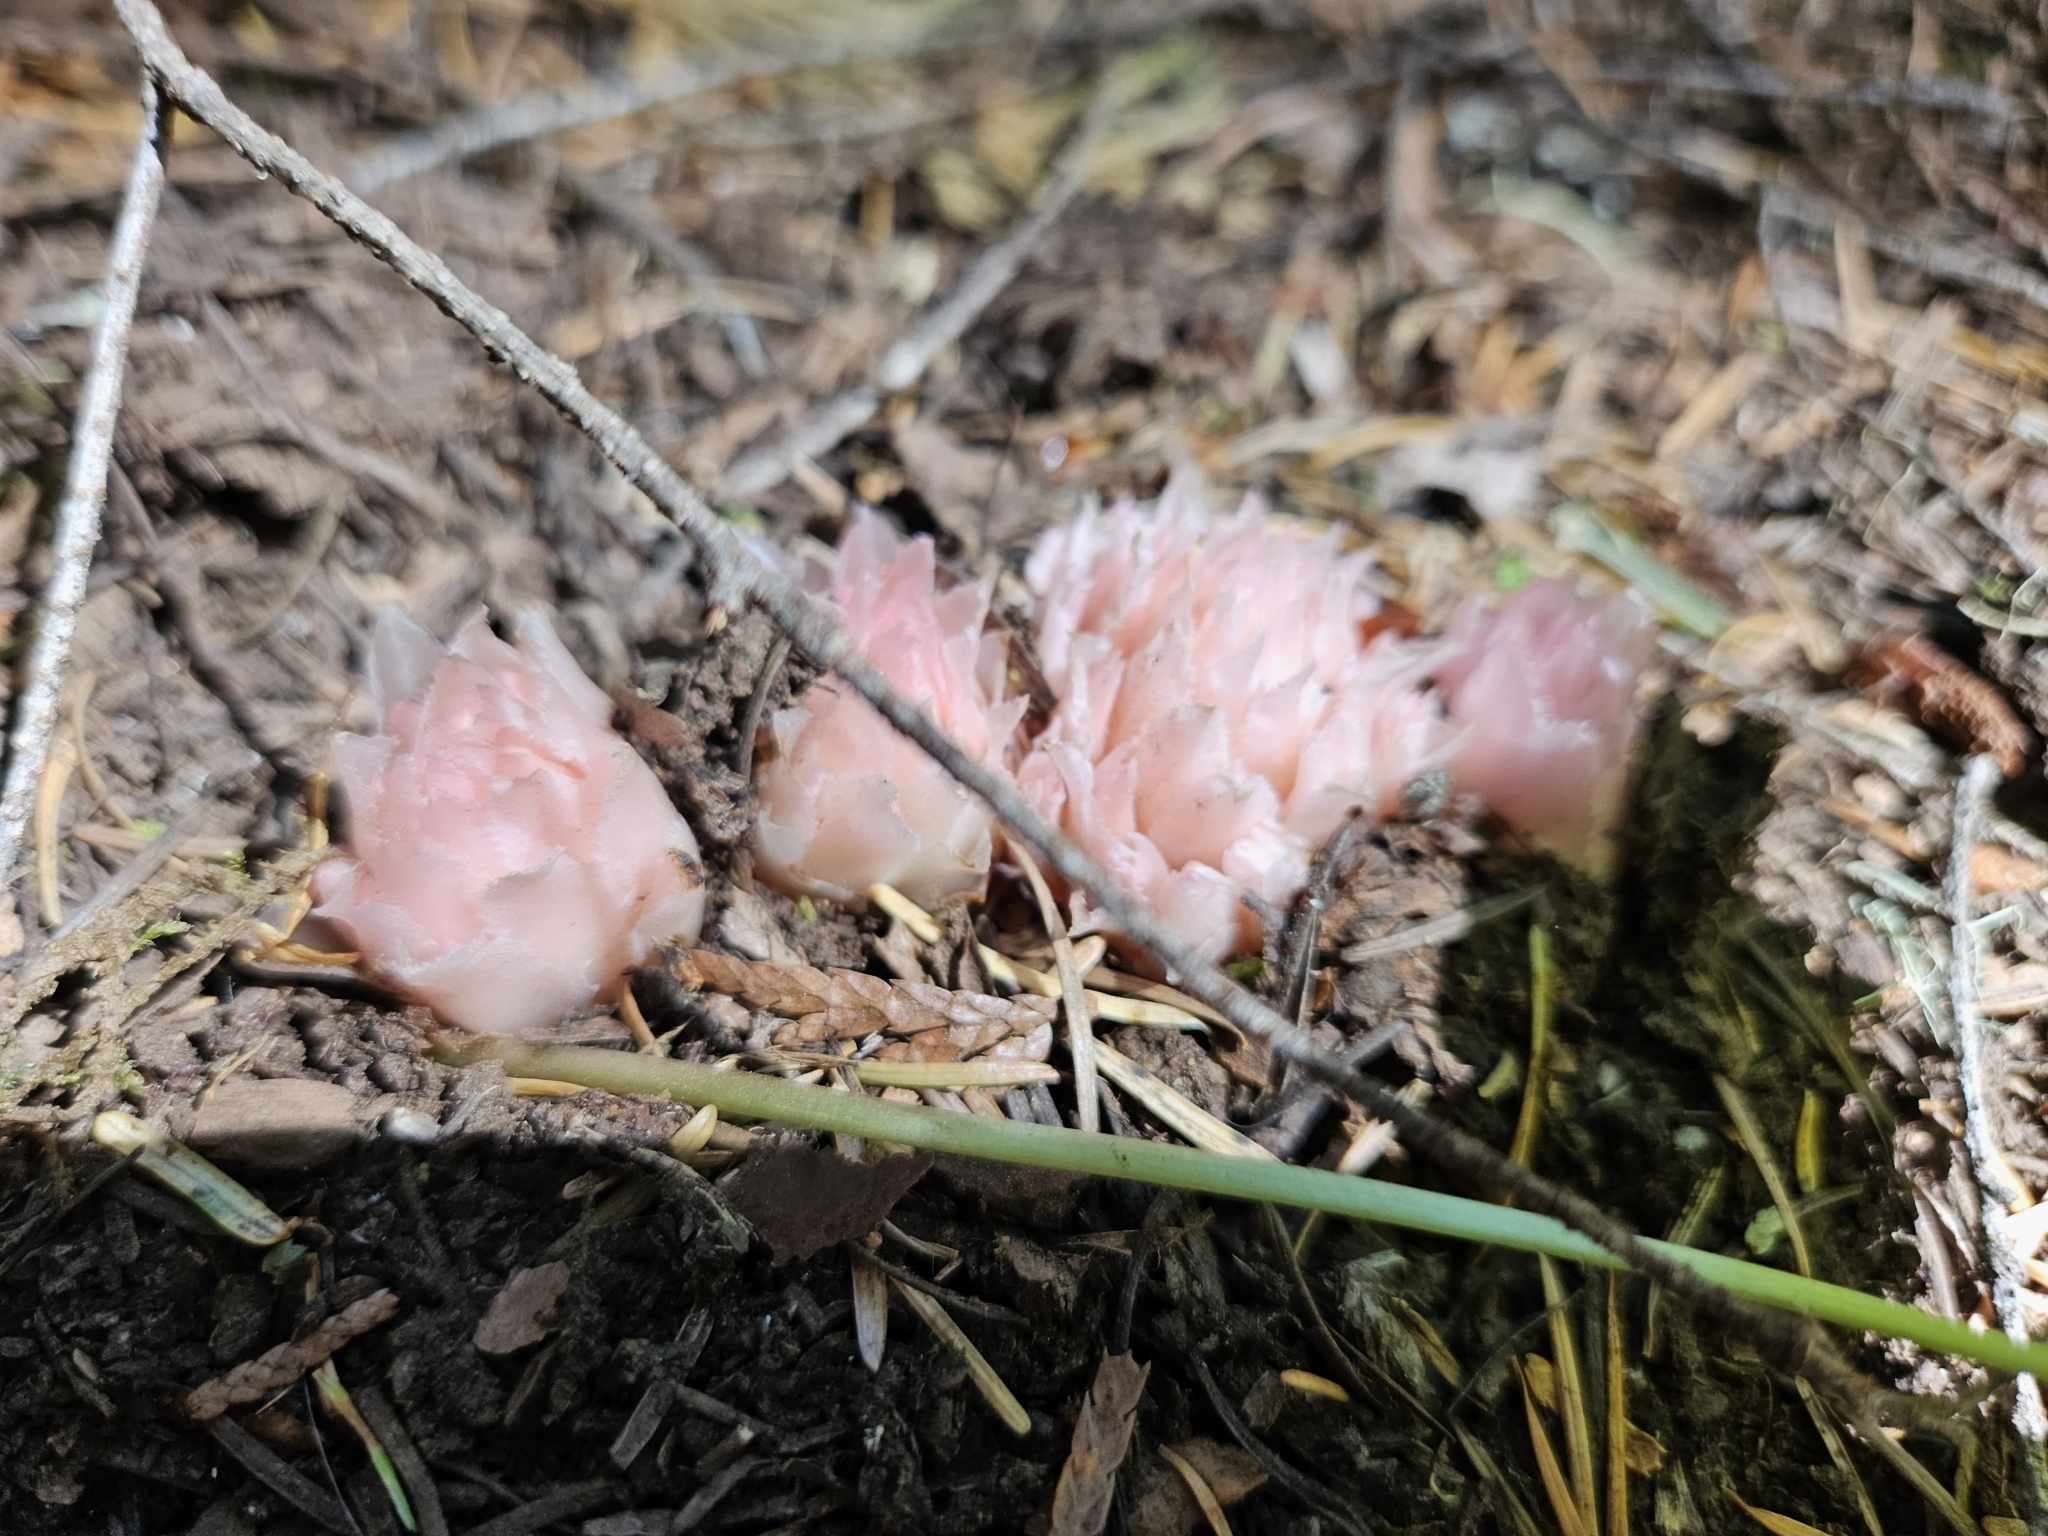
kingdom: Plantae
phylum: Tracheophyta
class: Magnoliopsida
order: Ericales
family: Ericaceae
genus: Hemitomes
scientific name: Hemitomes congestum
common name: Cone plant
